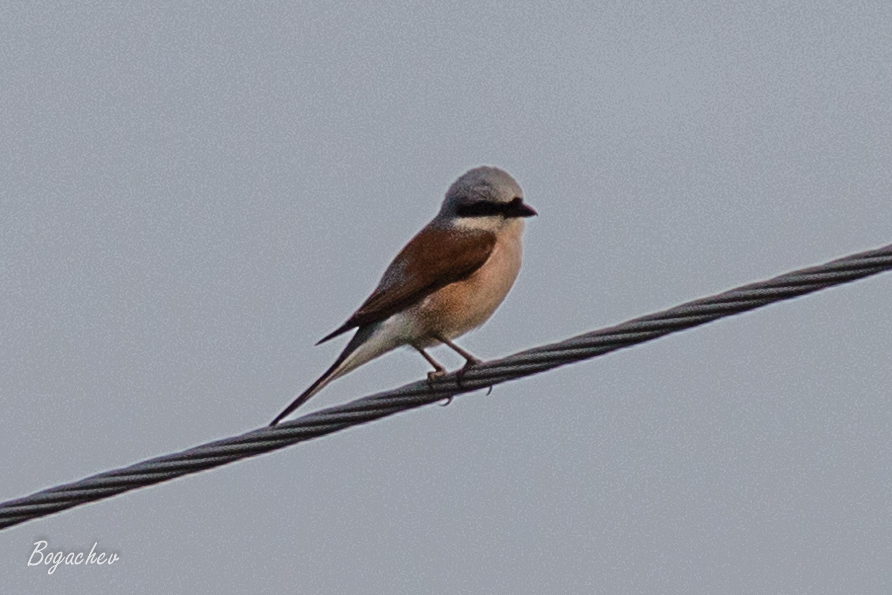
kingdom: Animalia
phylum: Chordata
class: Aves
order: Passeriformes
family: Laniidae
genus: Lanius
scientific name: Lanius collurio
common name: Red-backed shrike
